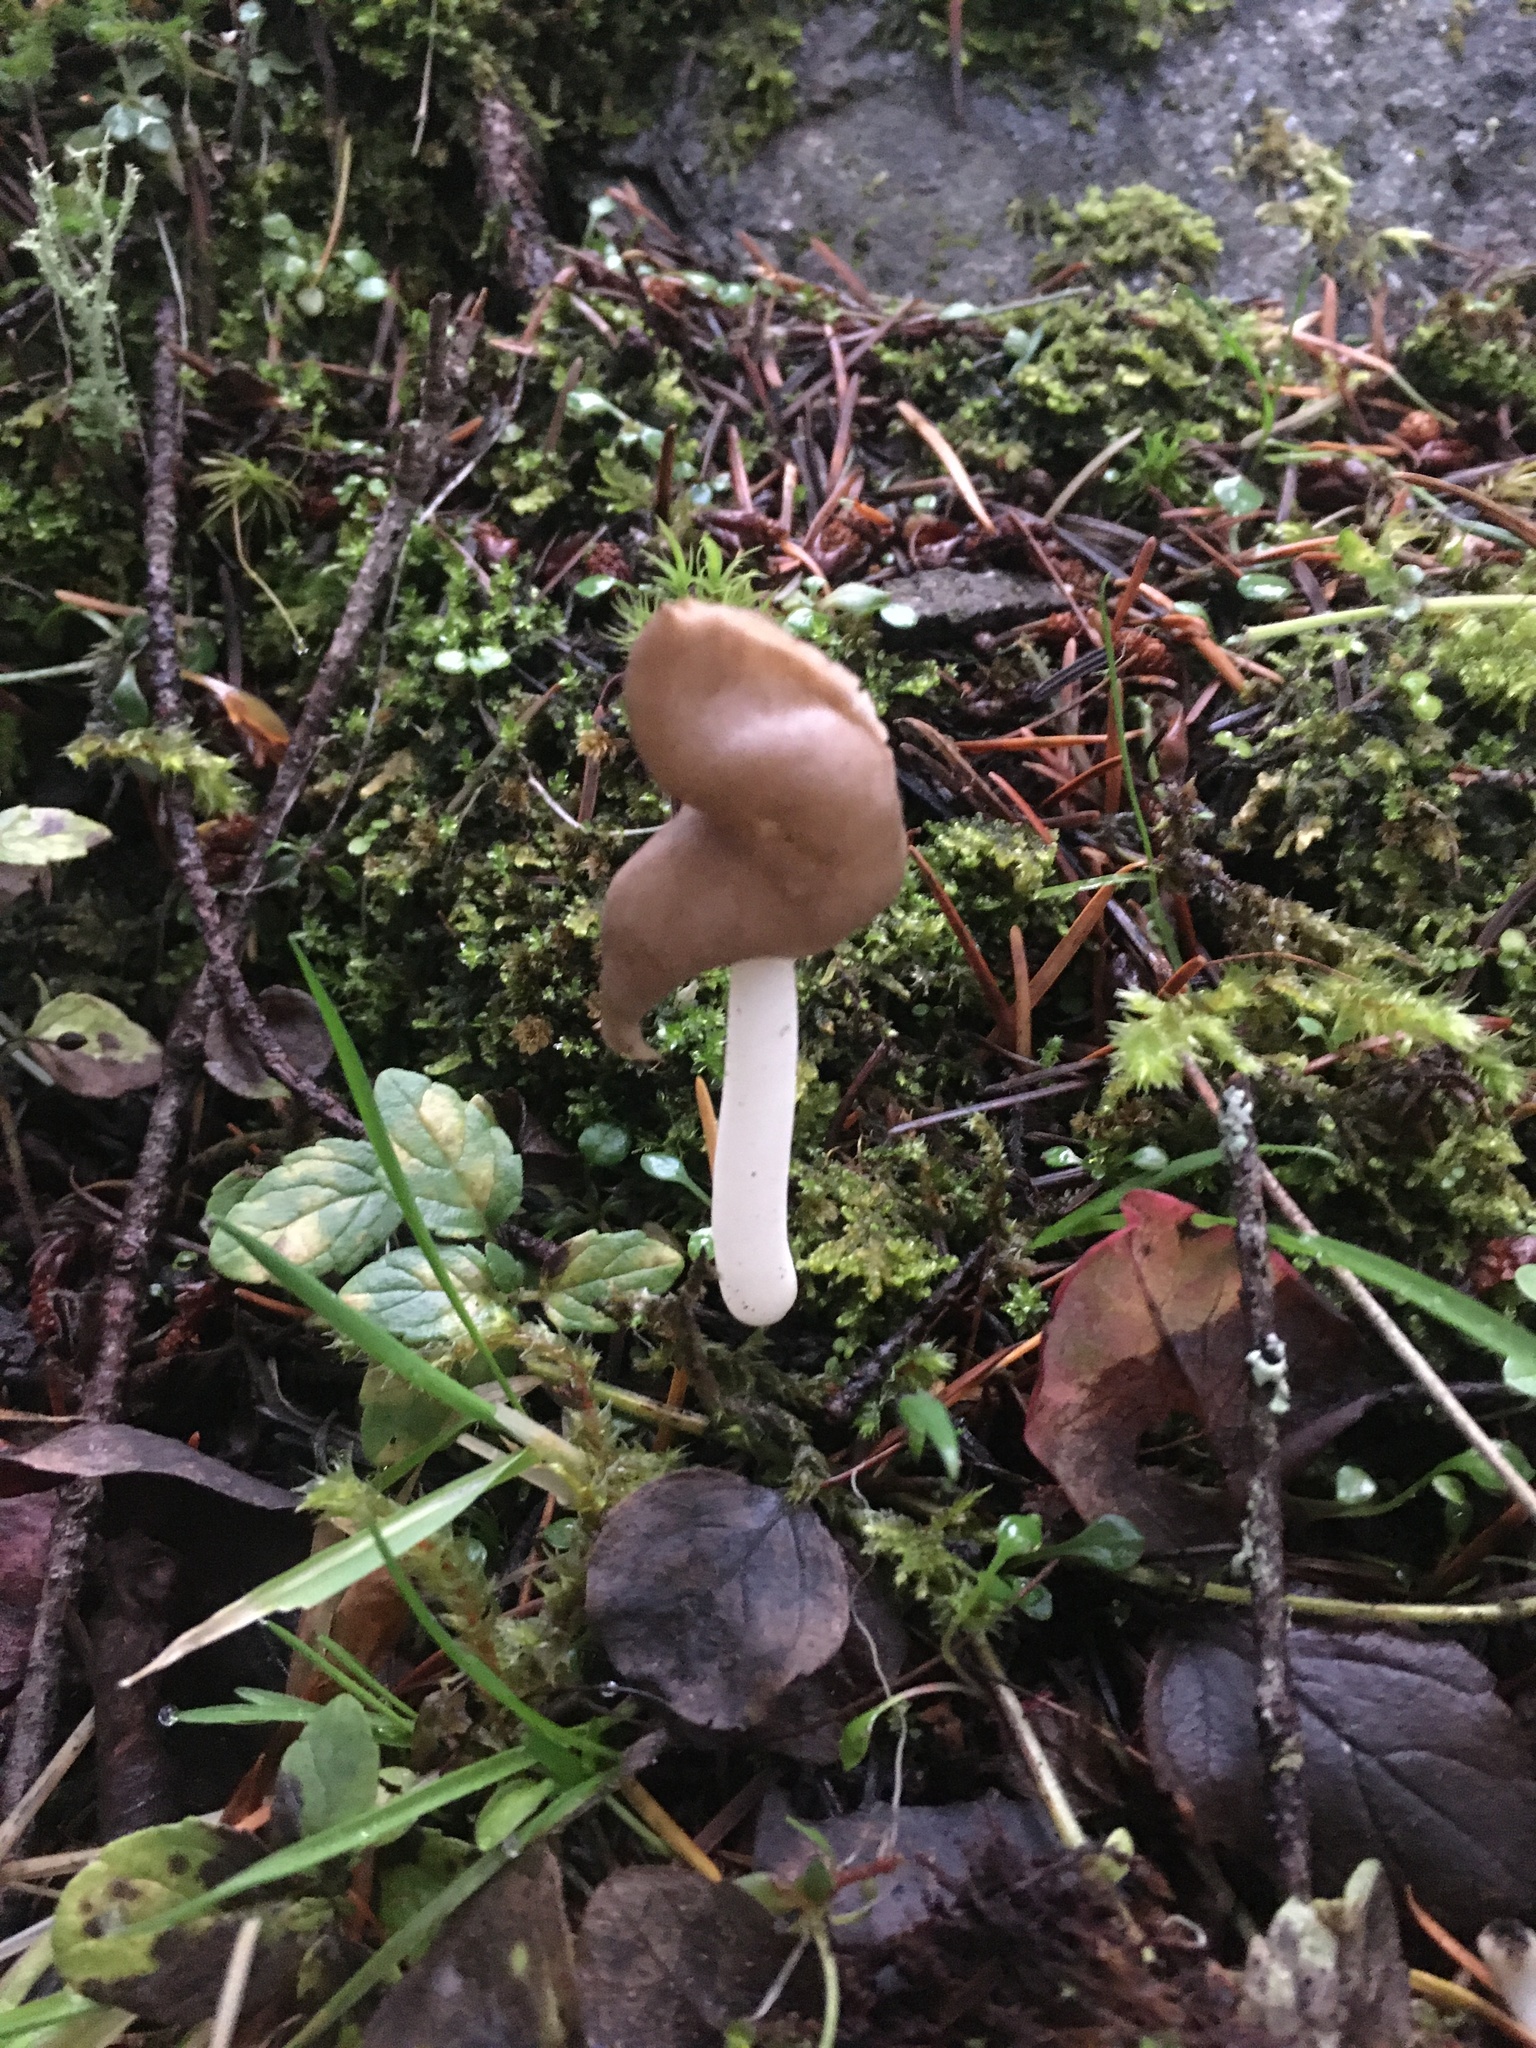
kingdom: Fungi
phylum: Ascomycota
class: Pezizomycetes
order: Pezizales
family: Helvellaceae
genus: Helvella
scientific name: Helvella compressa
